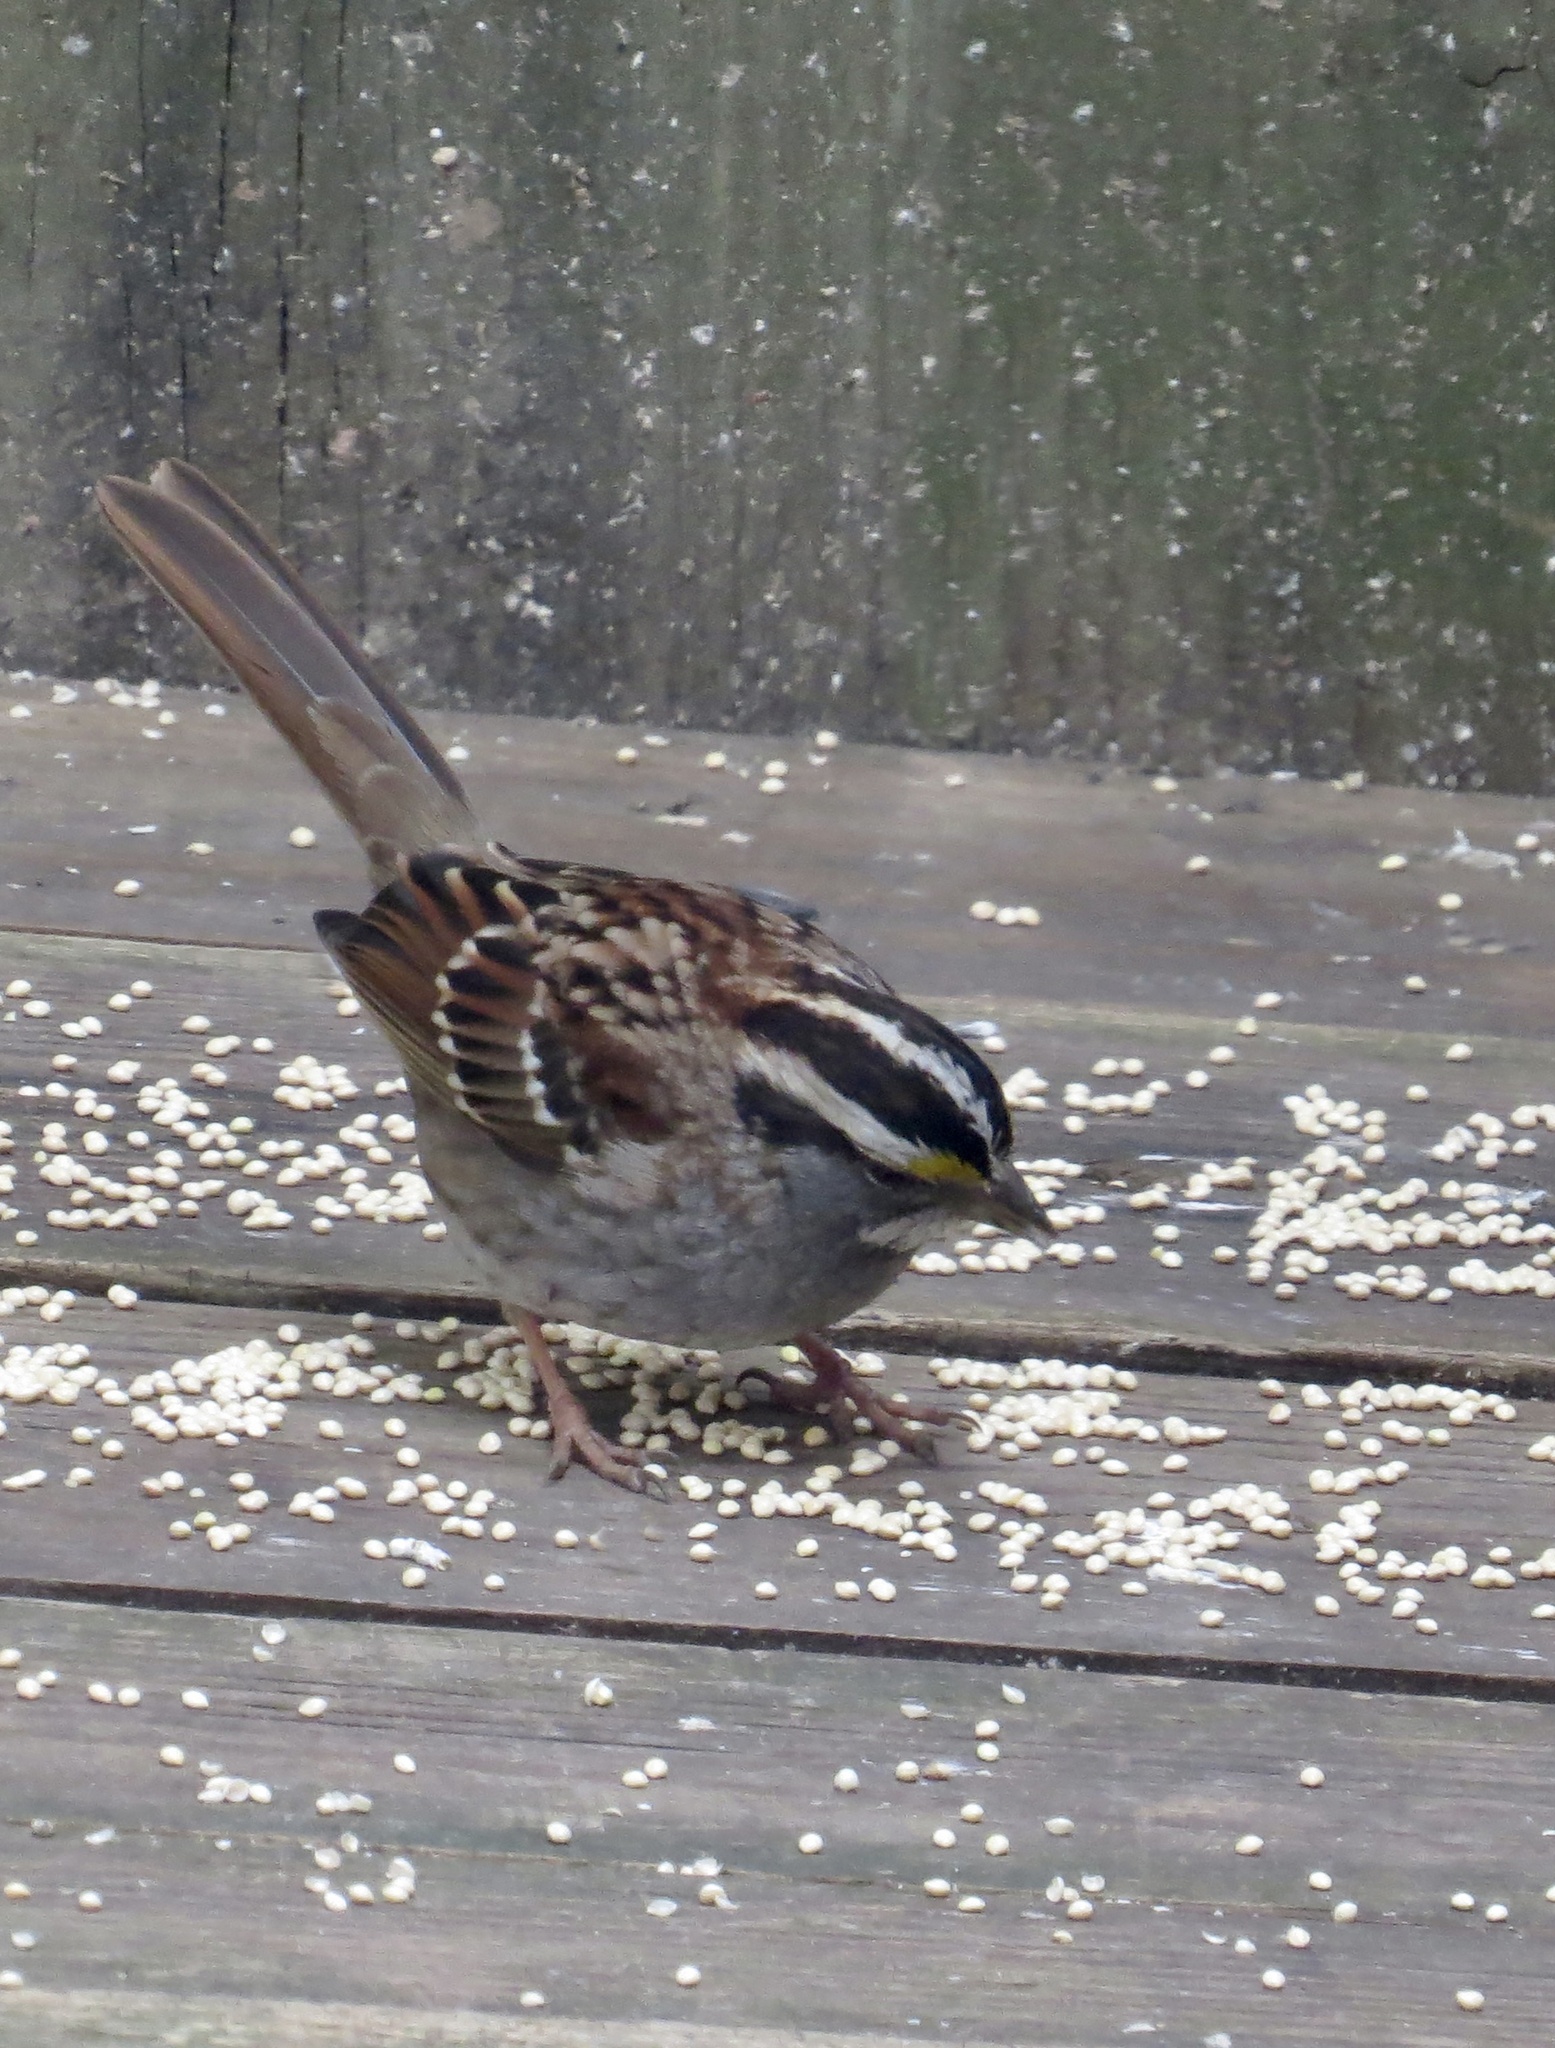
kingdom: Animalia
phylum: Chordata
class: Aves
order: Passeriformes
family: Passerellidae
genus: Zonotrichia
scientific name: Zonotrichia albicollis
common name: White-throated sparrow
